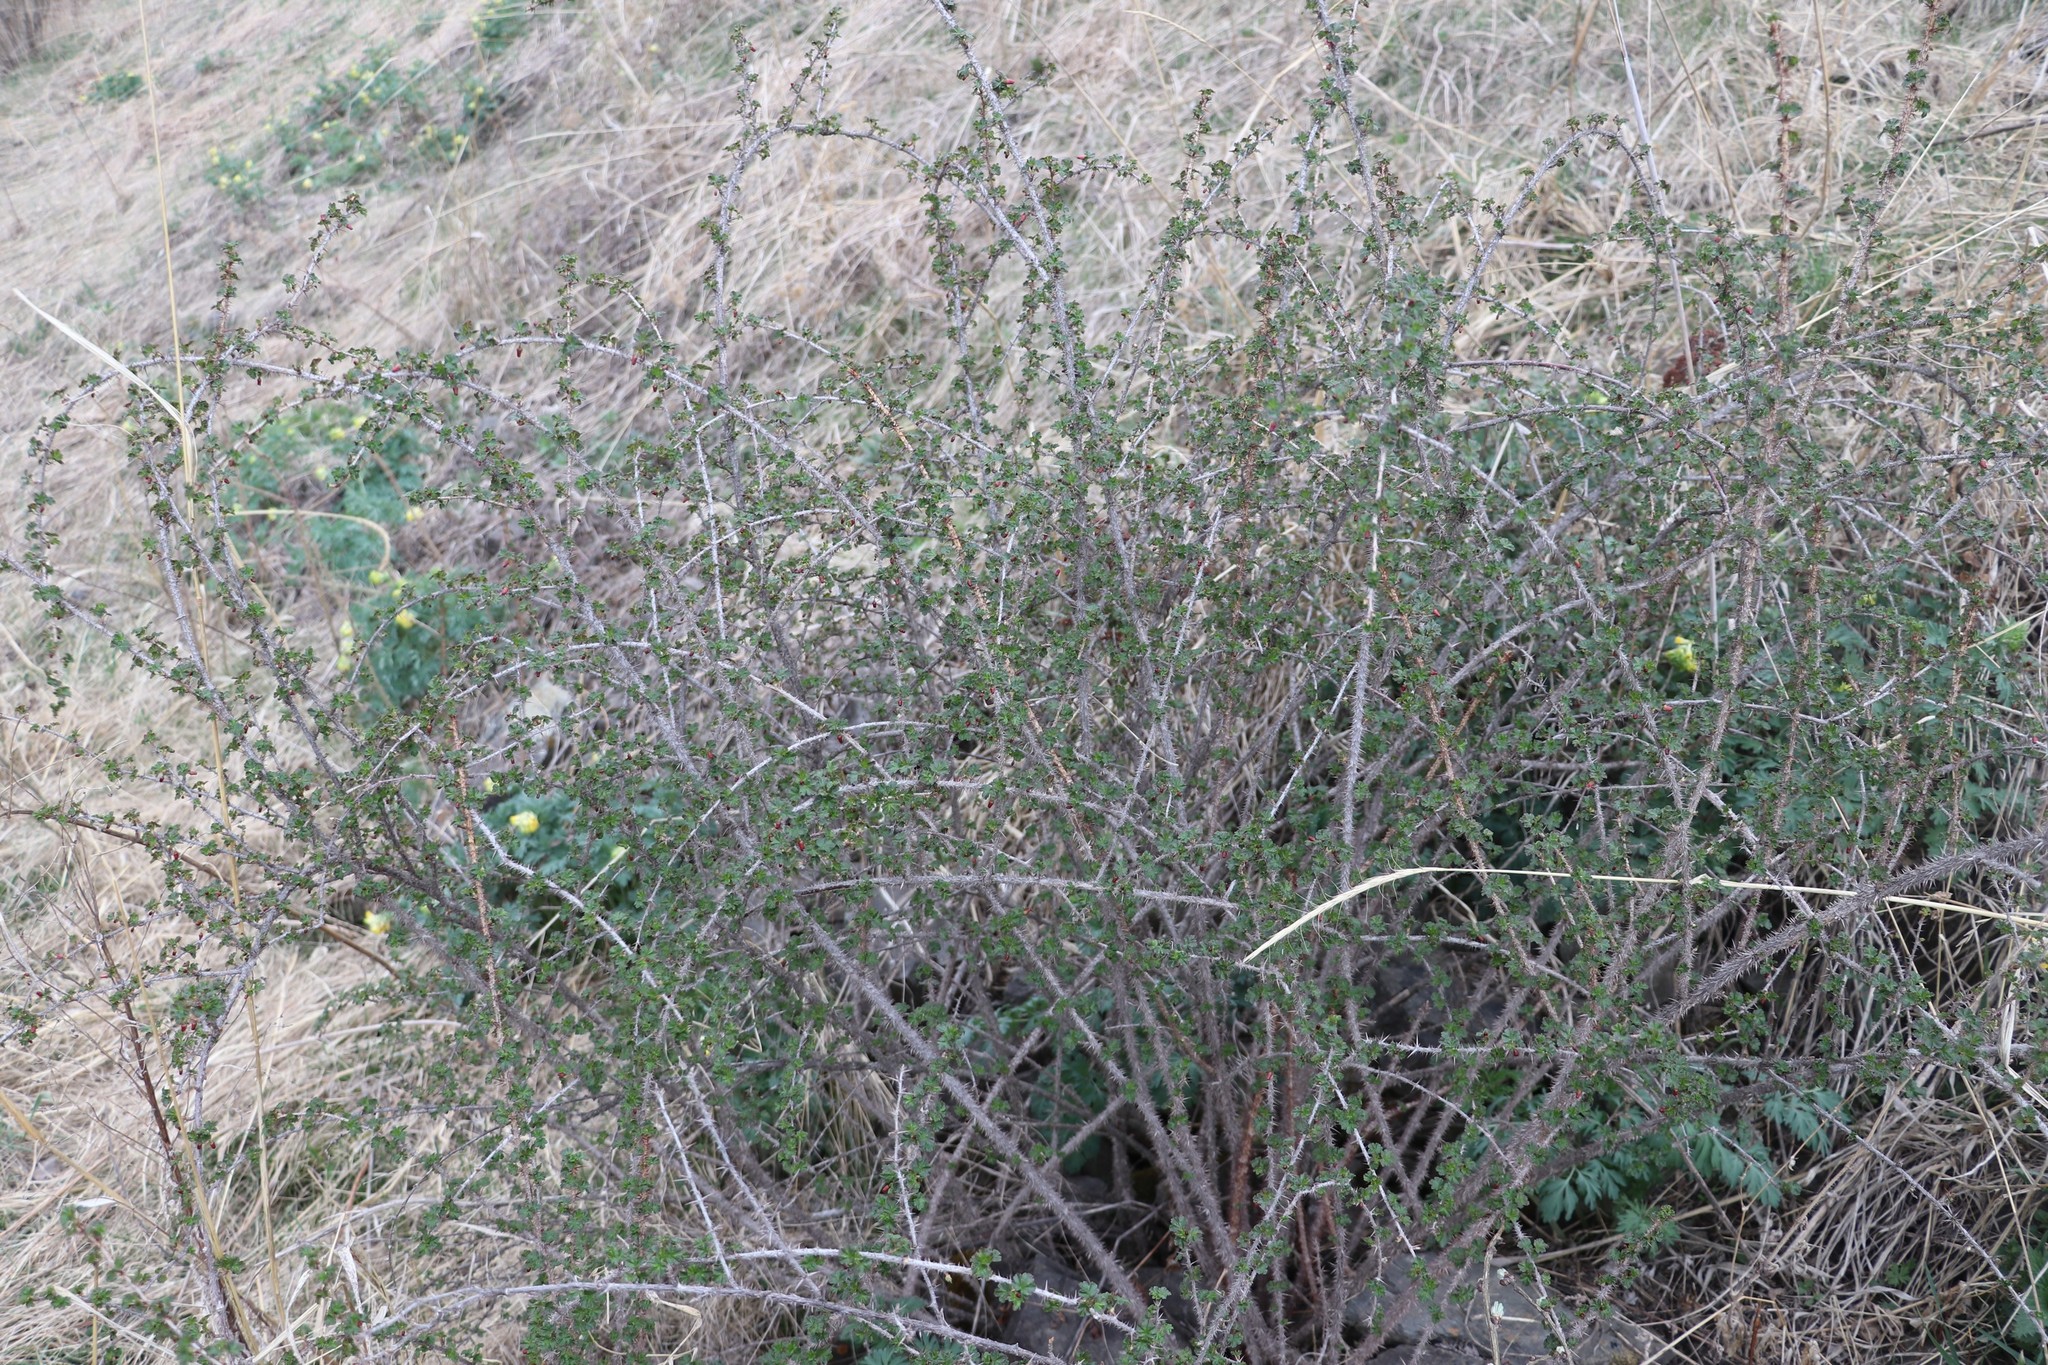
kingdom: Plantae
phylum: Tracheophyta
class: Magnoliopsida
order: Saxifragales
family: Grossulariaceae
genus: Ribes
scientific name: Ribes aciculare
